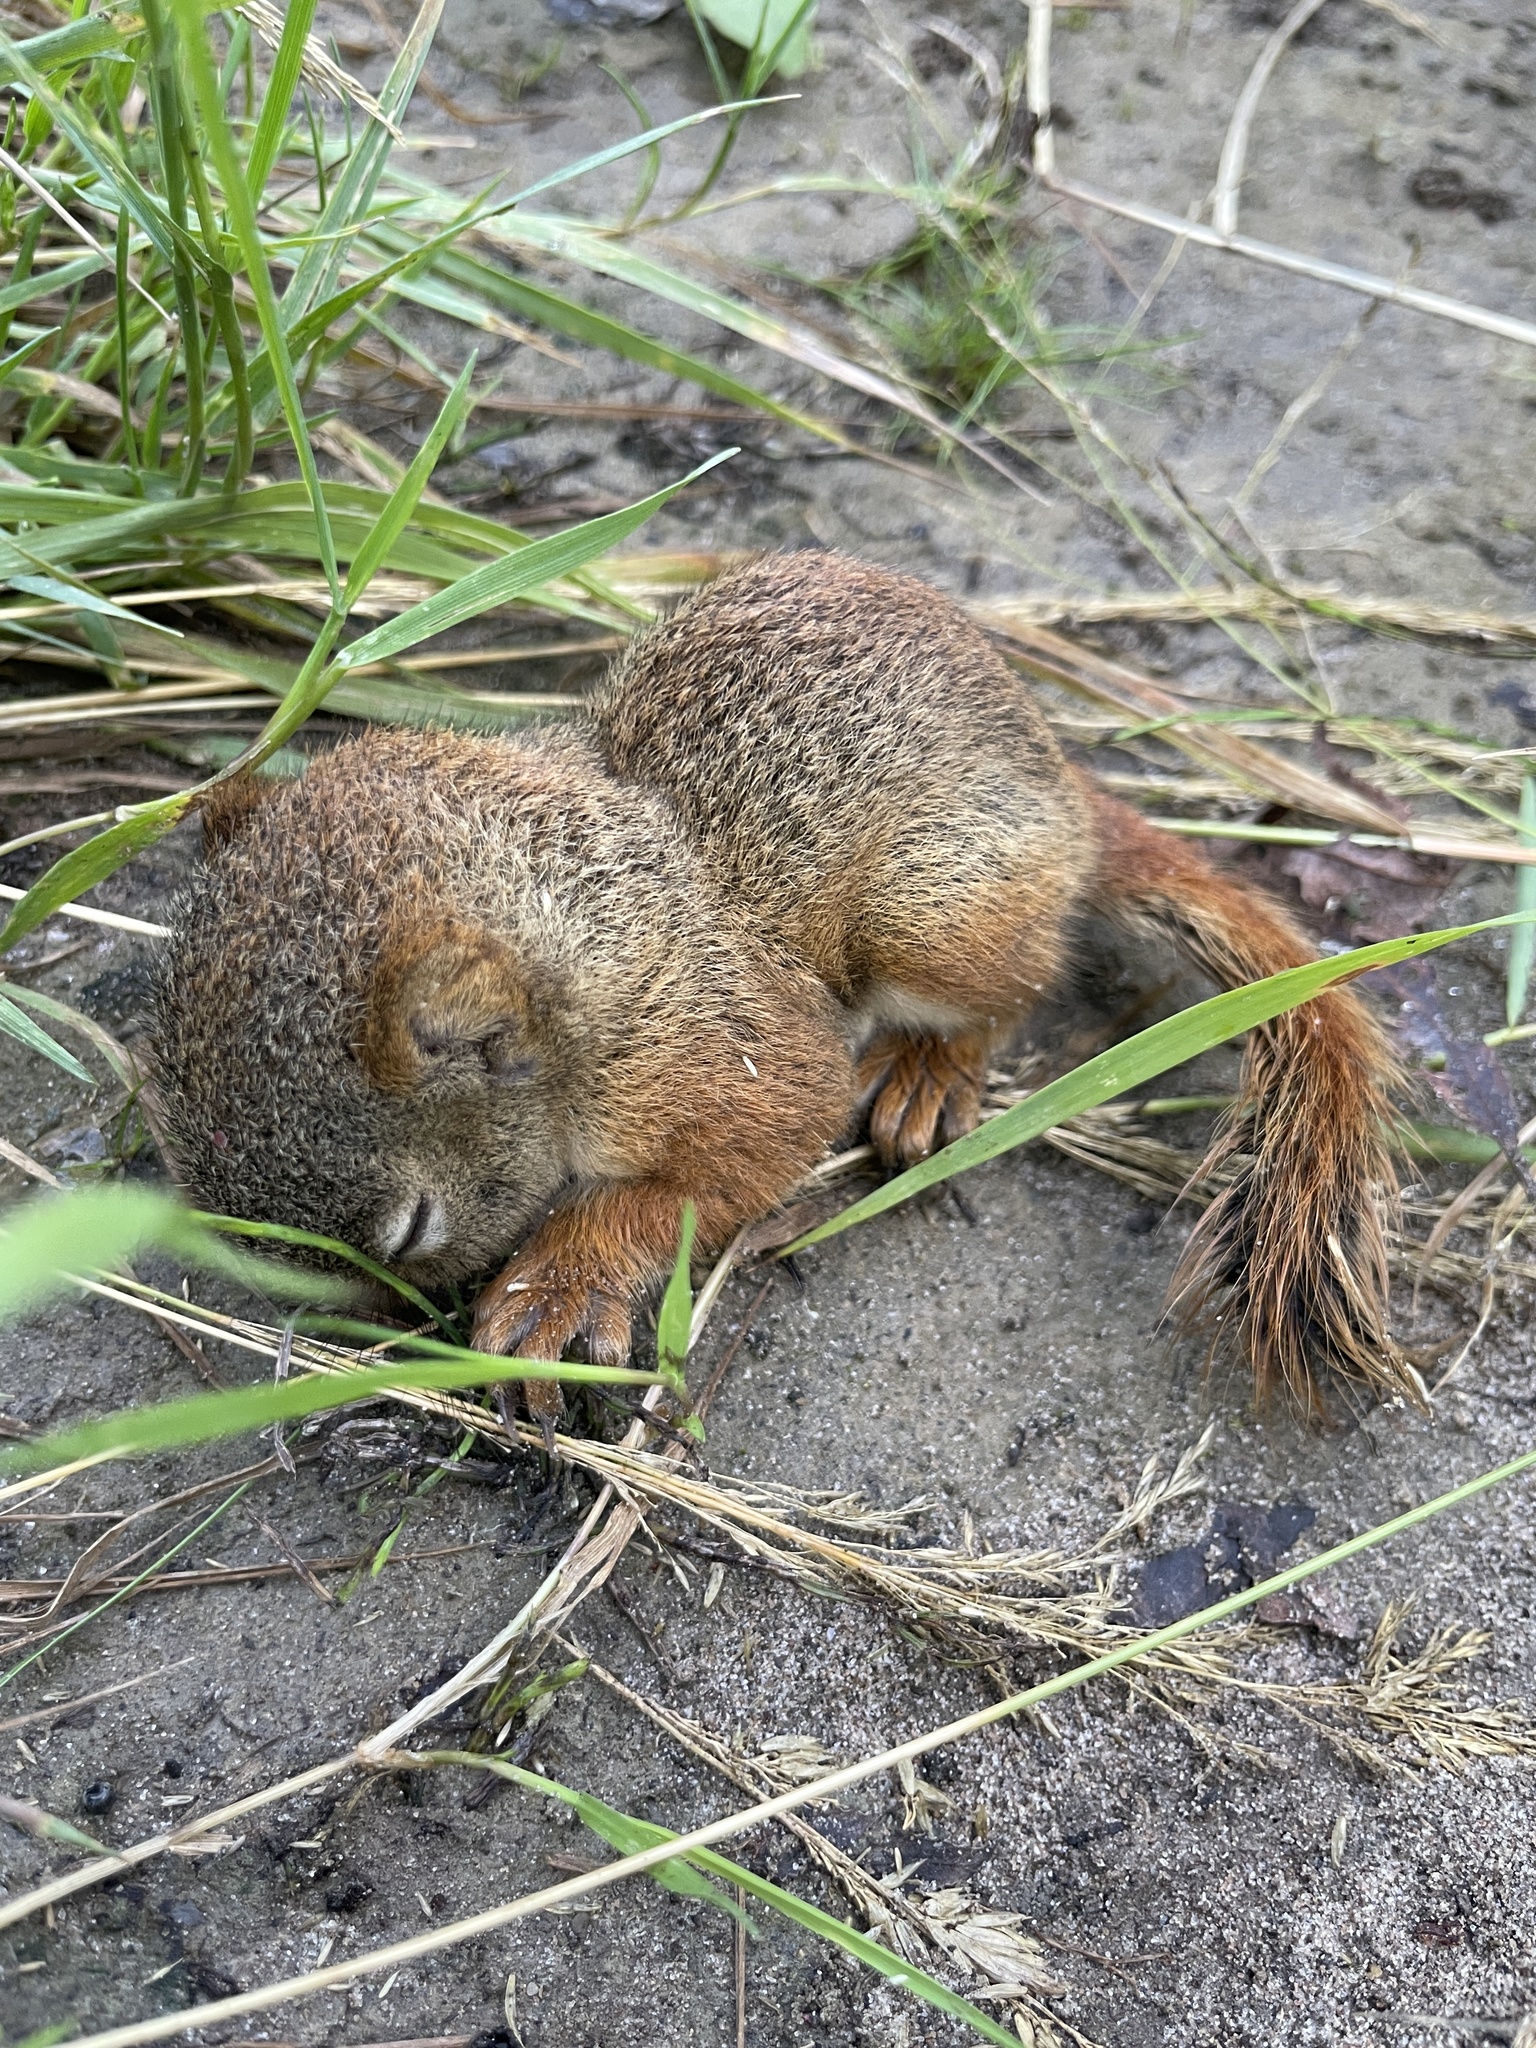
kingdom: Animalia
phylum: Chordata
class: Mammalia
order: Rodentia
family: Sciuridae
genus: Tamiasciurus
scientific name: Tamiasciurus hudsonicus
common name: Red squirrel
